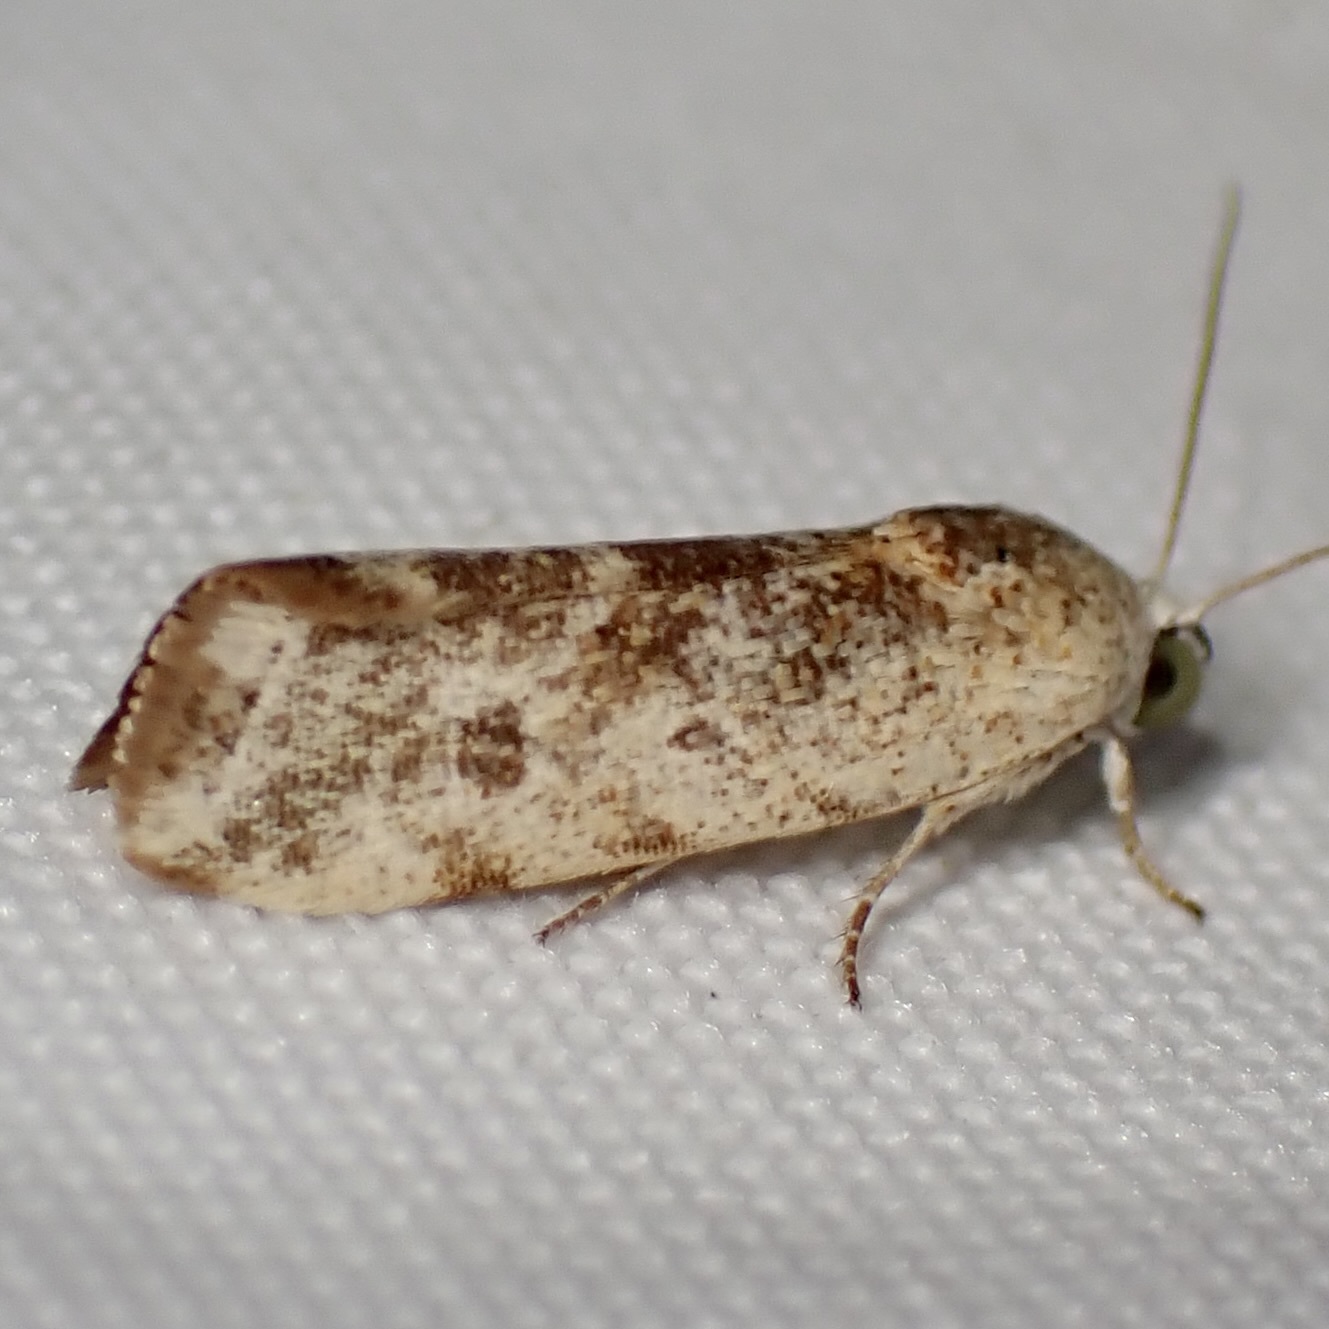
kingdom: Animalia
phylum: Arthropoda
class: Insecta
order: Lepidoptera
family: Noctuidae
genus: Acontia
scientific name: Acontia fasciatella
